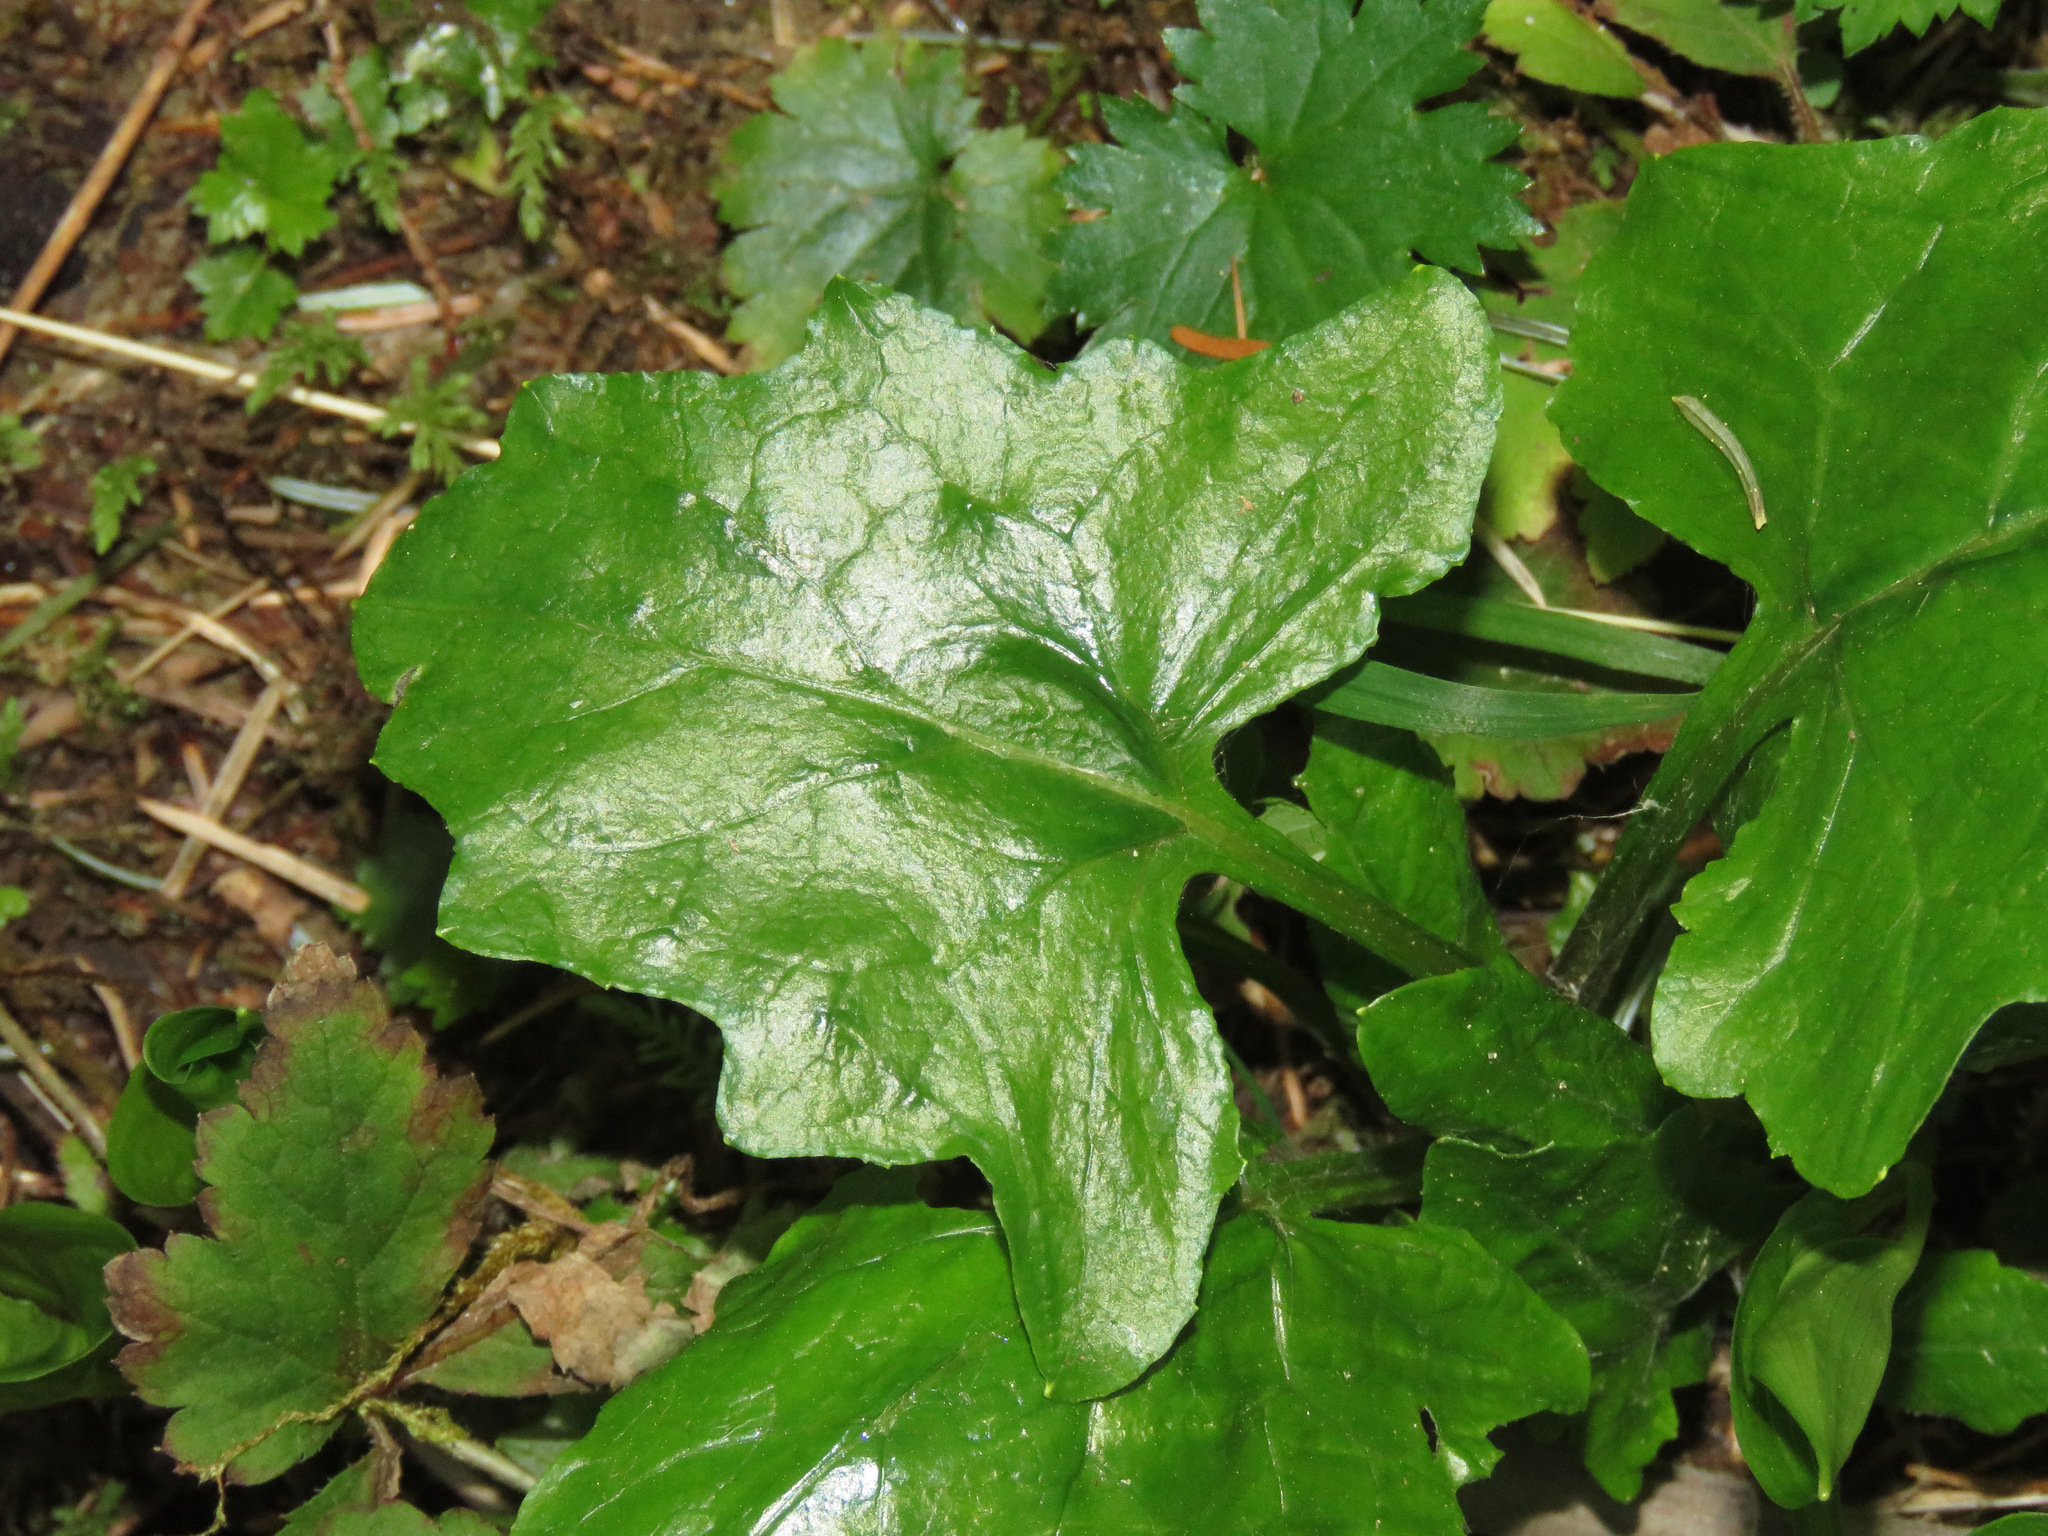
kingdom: Plantae
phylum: Tracheophyta
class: Magnoliopsida
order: Asterales
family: Asteraceae
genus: Adenocaulon
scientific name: Adenocaulon bicolor
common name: Trailplant
